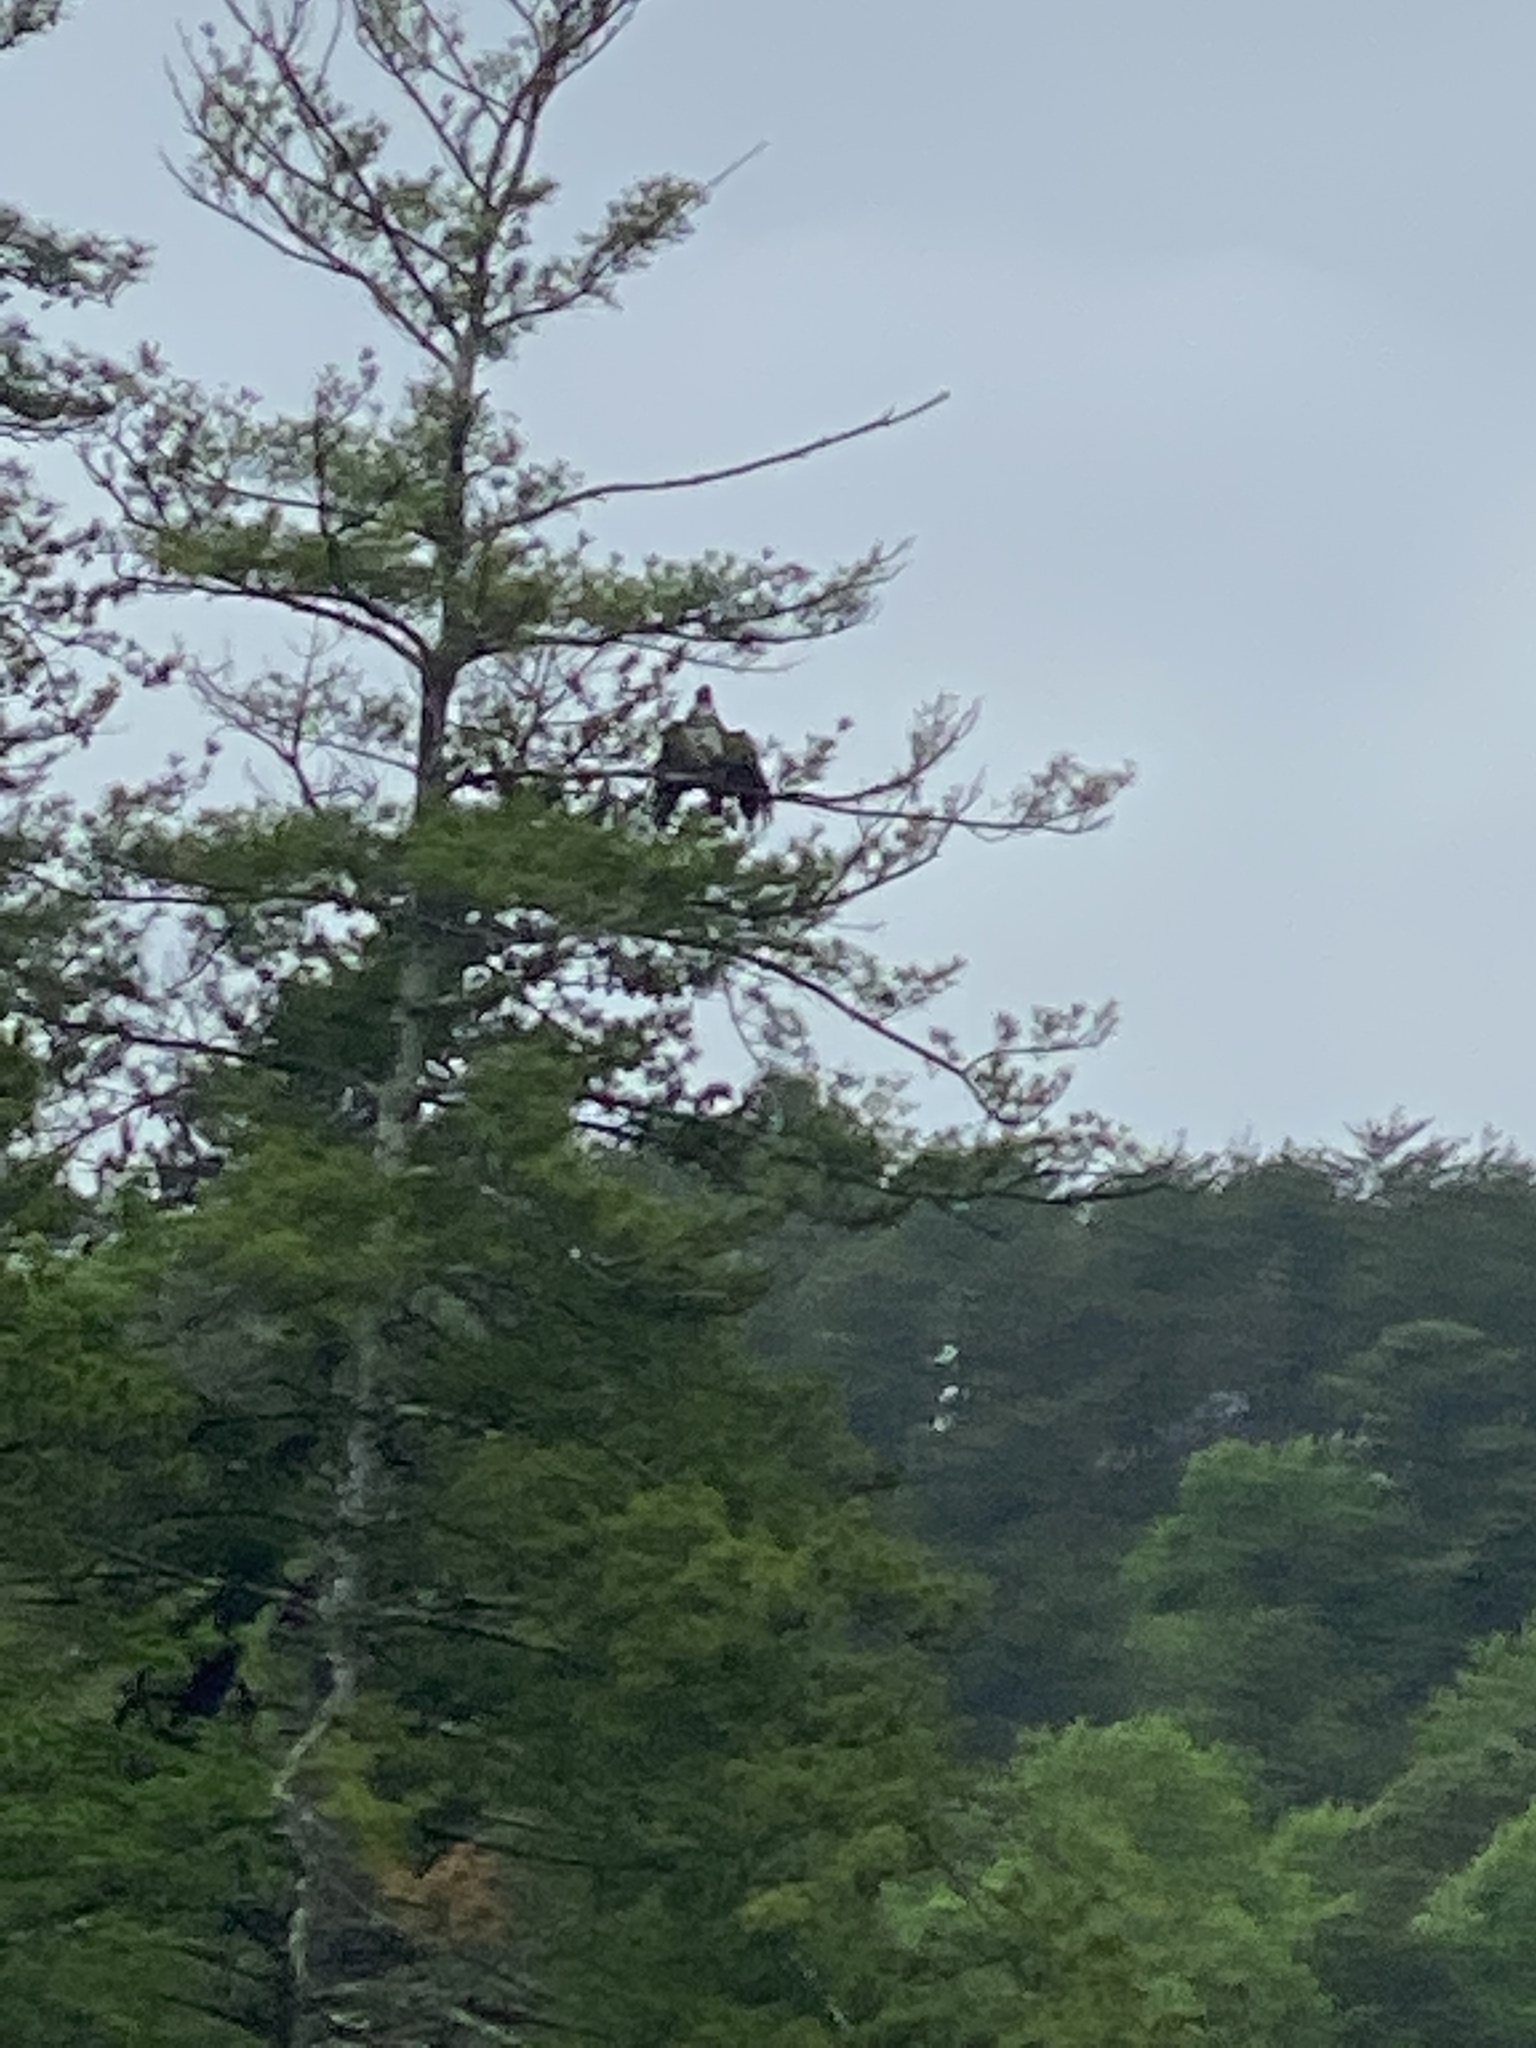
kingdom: Animalia
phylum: Chordata
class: Aves
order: Accipitriformes
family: Accipitridae
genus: Haliaeetus
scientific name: Haliaeetus leucocephalus
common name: Bald eagle
